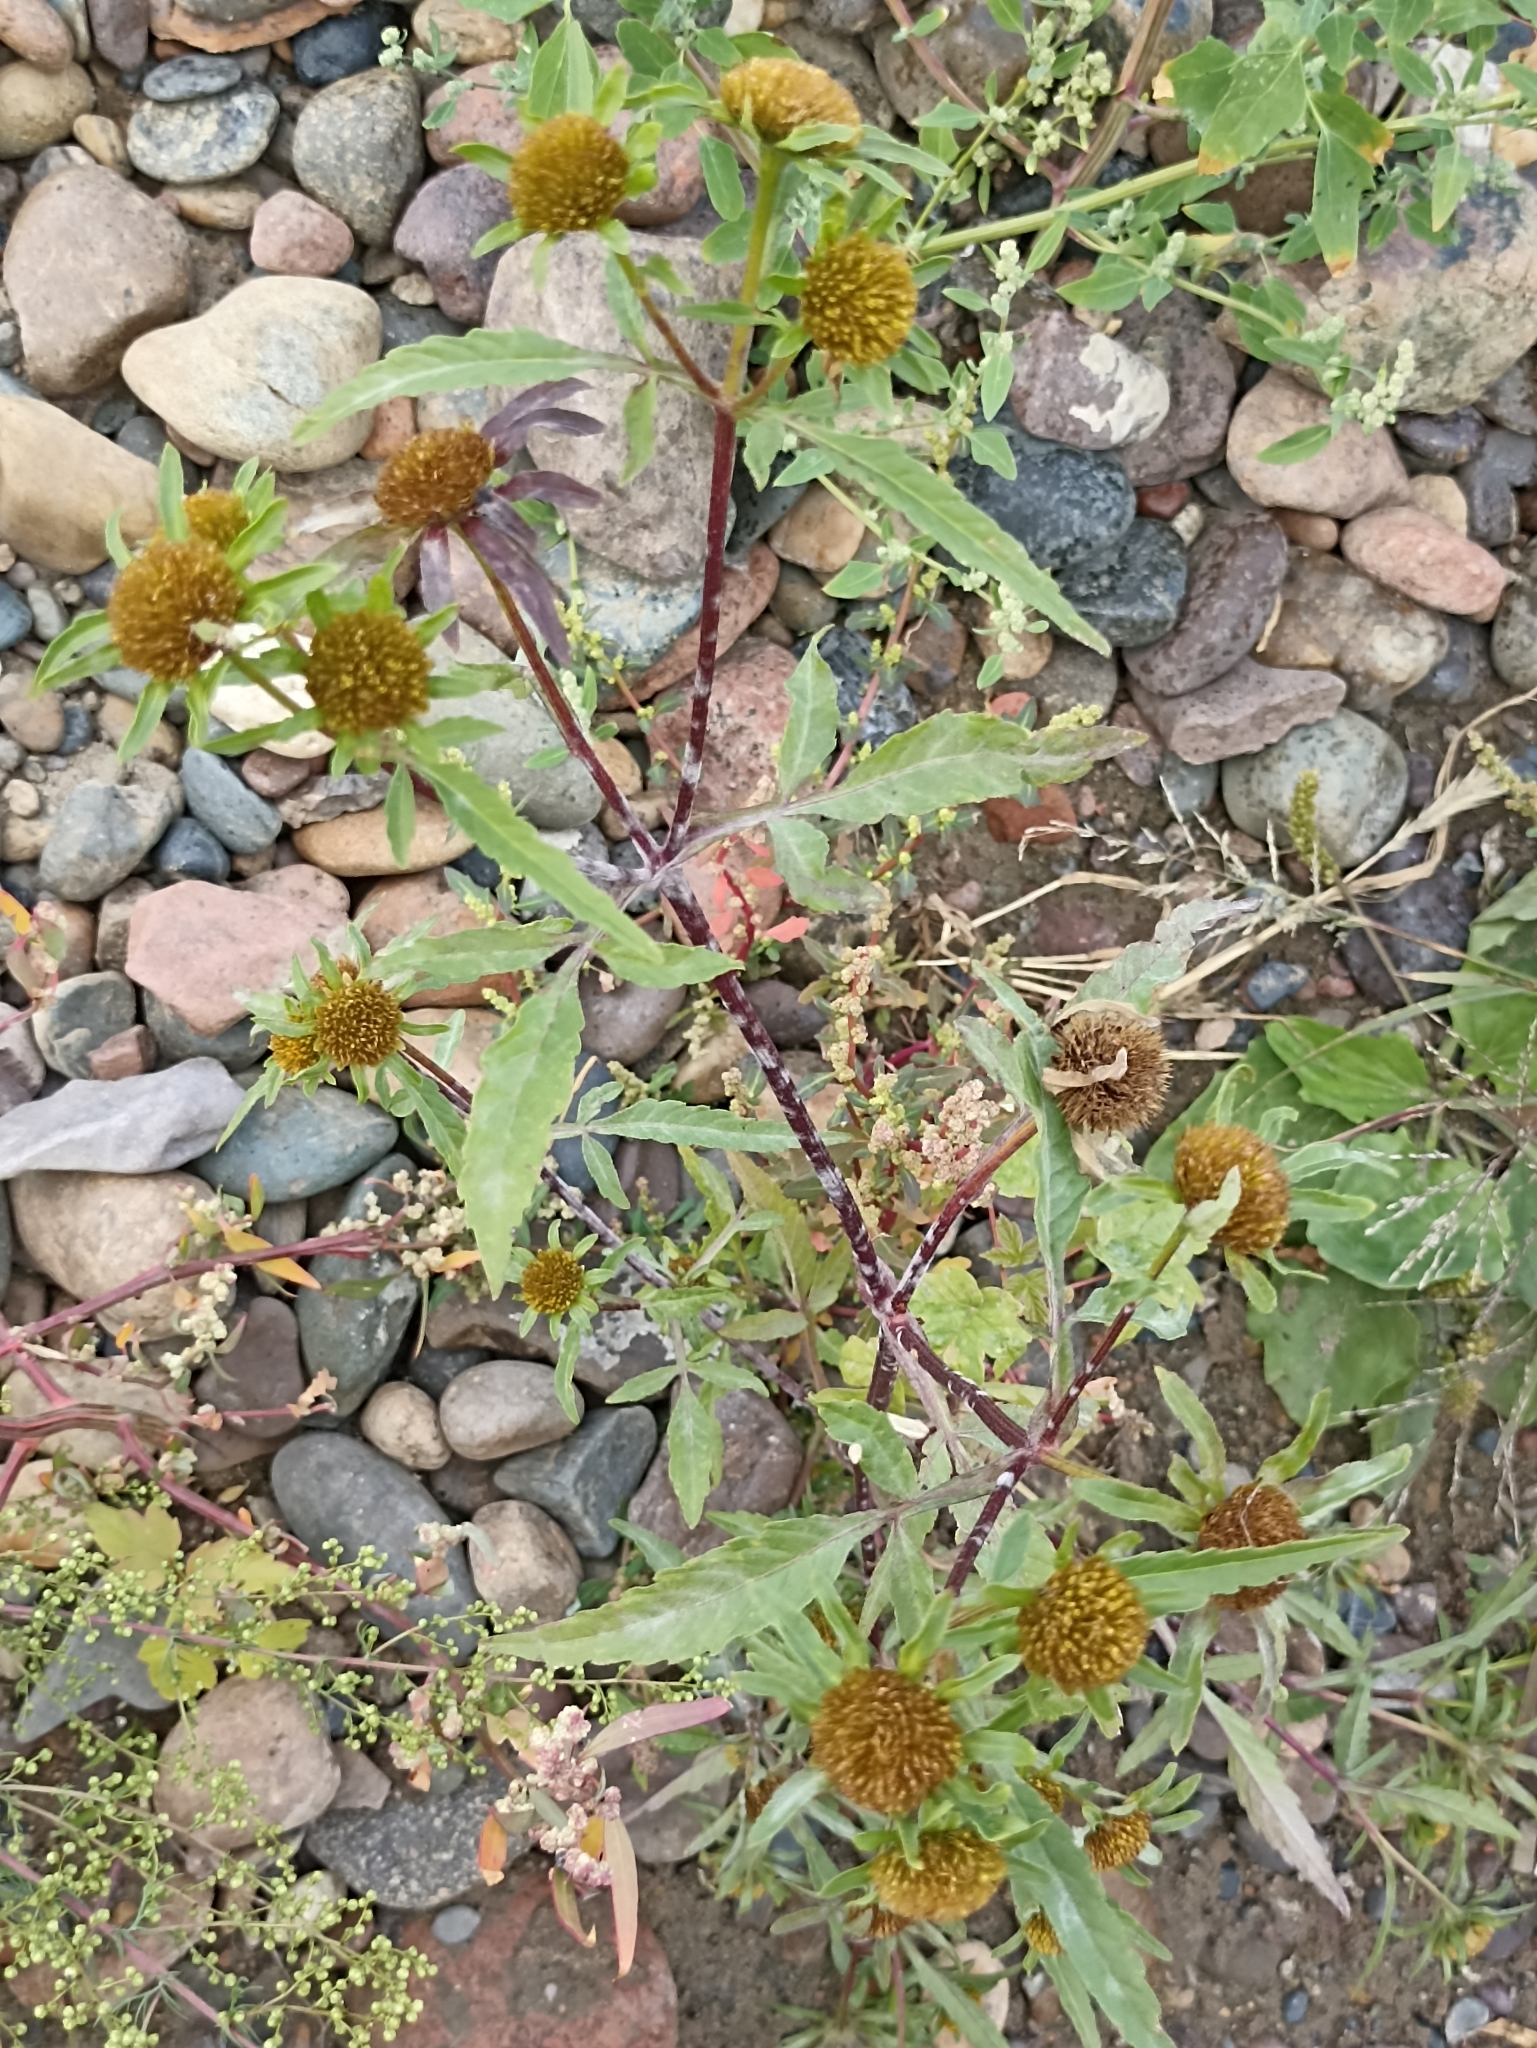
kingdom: Plantae
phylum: Tracheophyta
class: Magnoliopsida
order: Asterales
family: Asteraceae
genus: Bidens
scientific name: Bidens radiata
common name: Radiating bur-marigold
